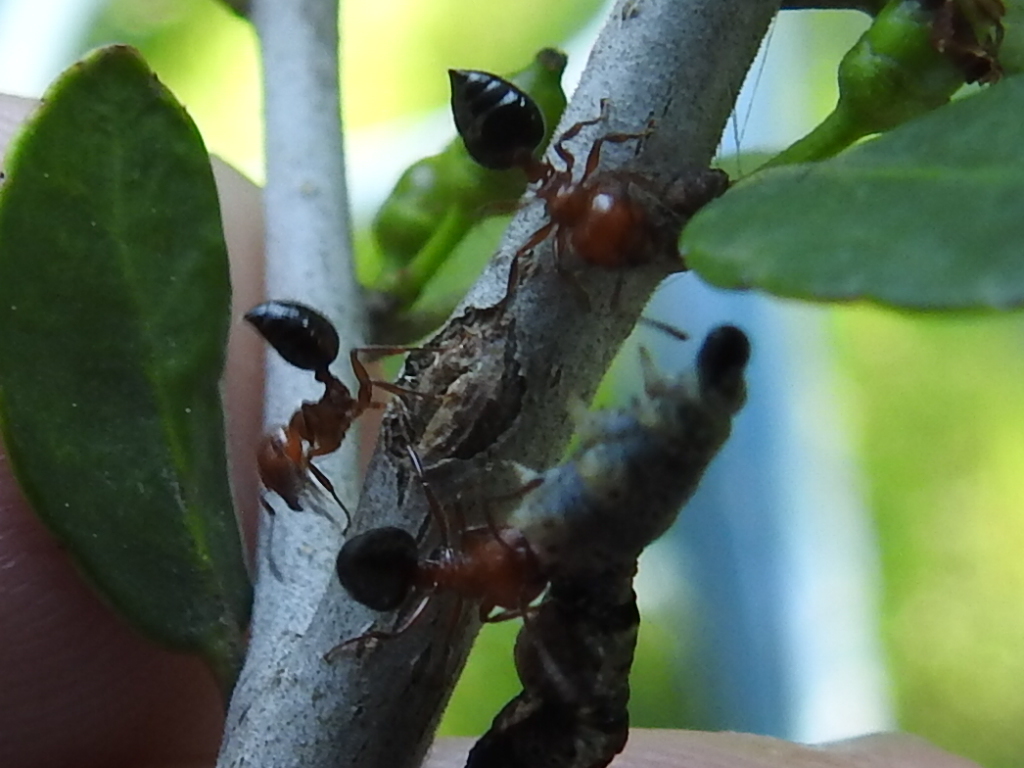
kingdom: Animalia
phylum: Arthropoda
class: Insecta
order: Hymenoptera
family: Formicidae
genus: Crematogaster
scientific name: Crematogaster laeviuscula
